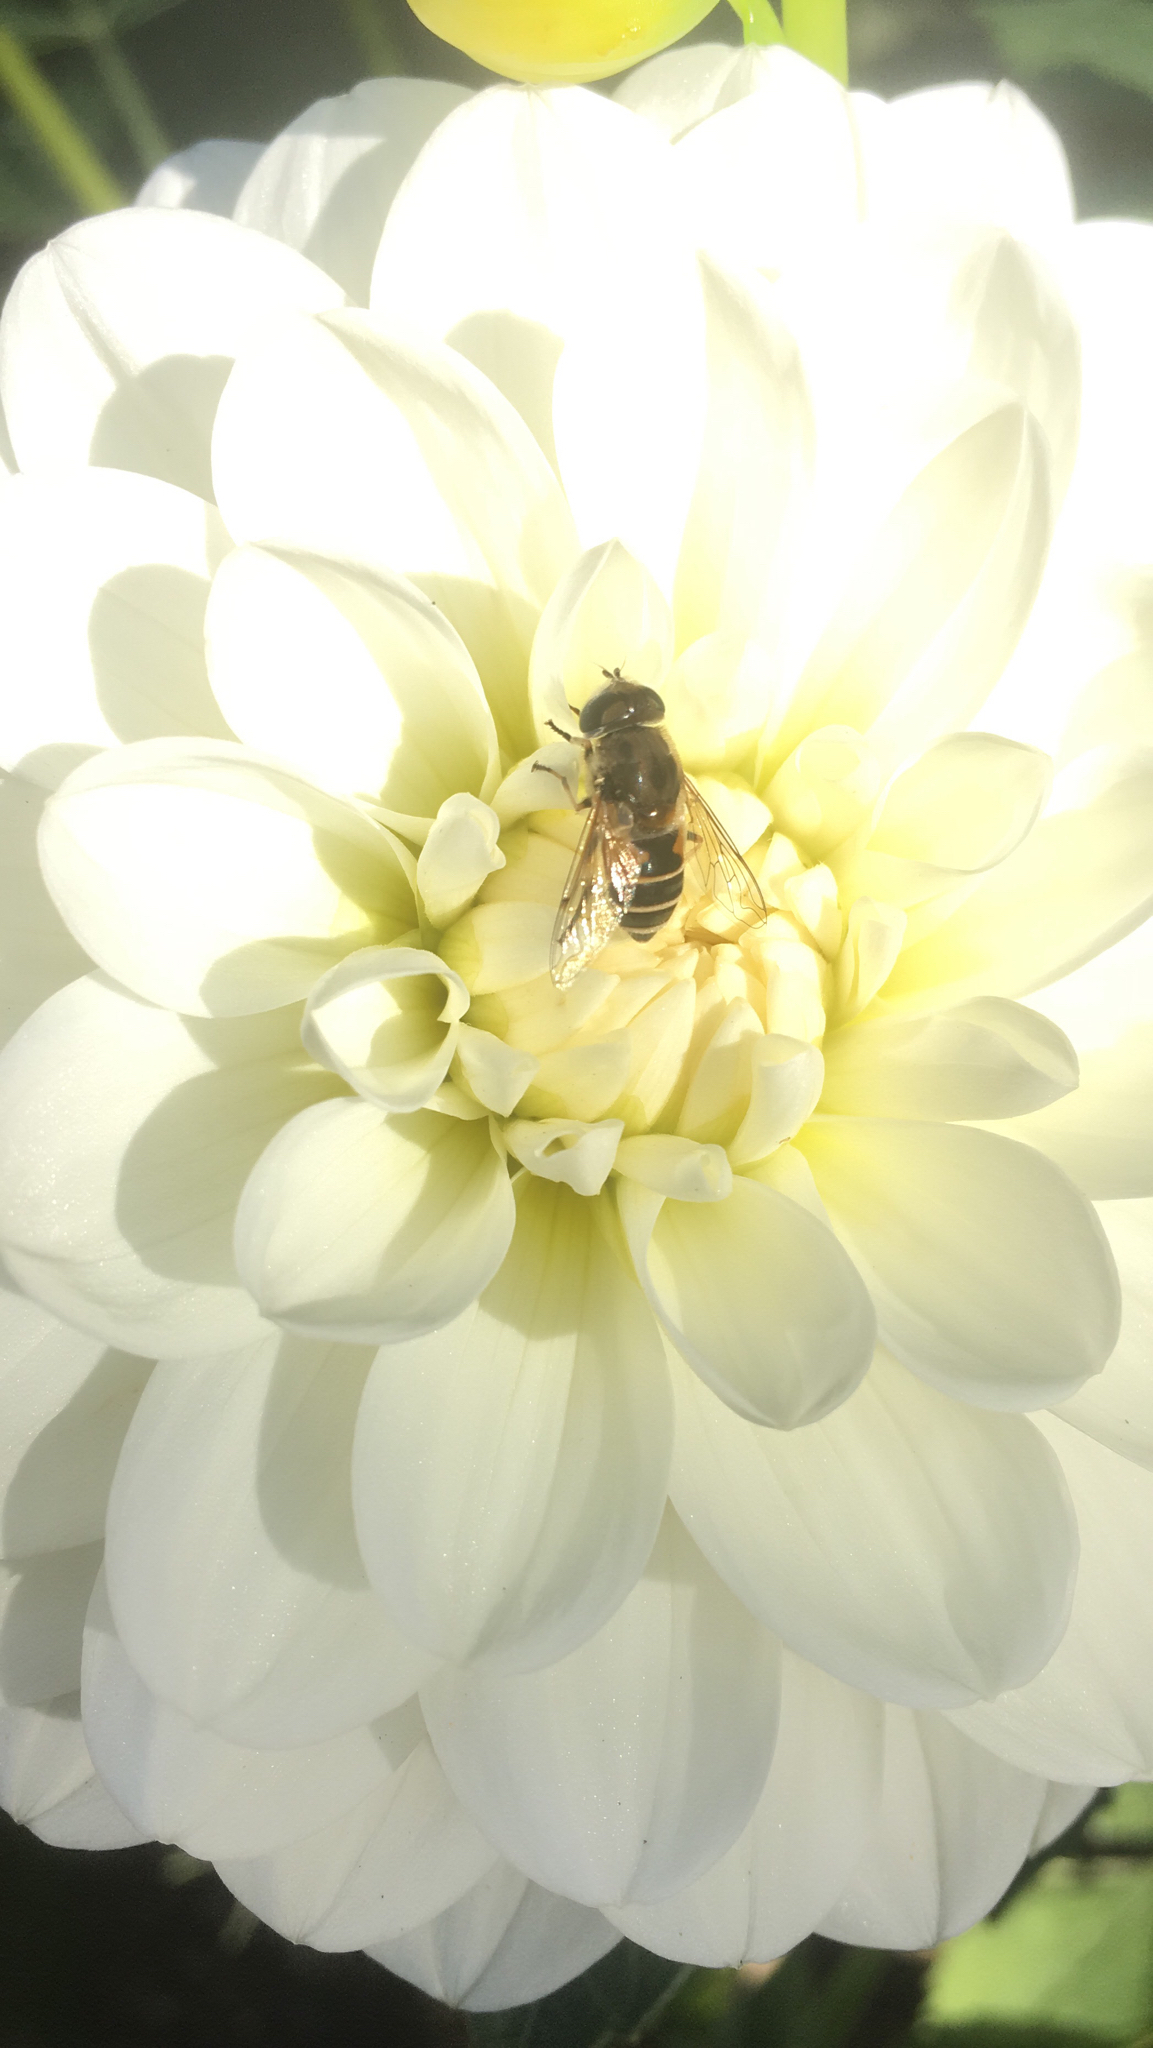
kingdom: Animalia
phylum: Arthropoda
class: Insecta
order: Diptera
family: Syrphidae
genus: Eristalis
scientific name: Eristalis arbustorum
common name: Hover fly
